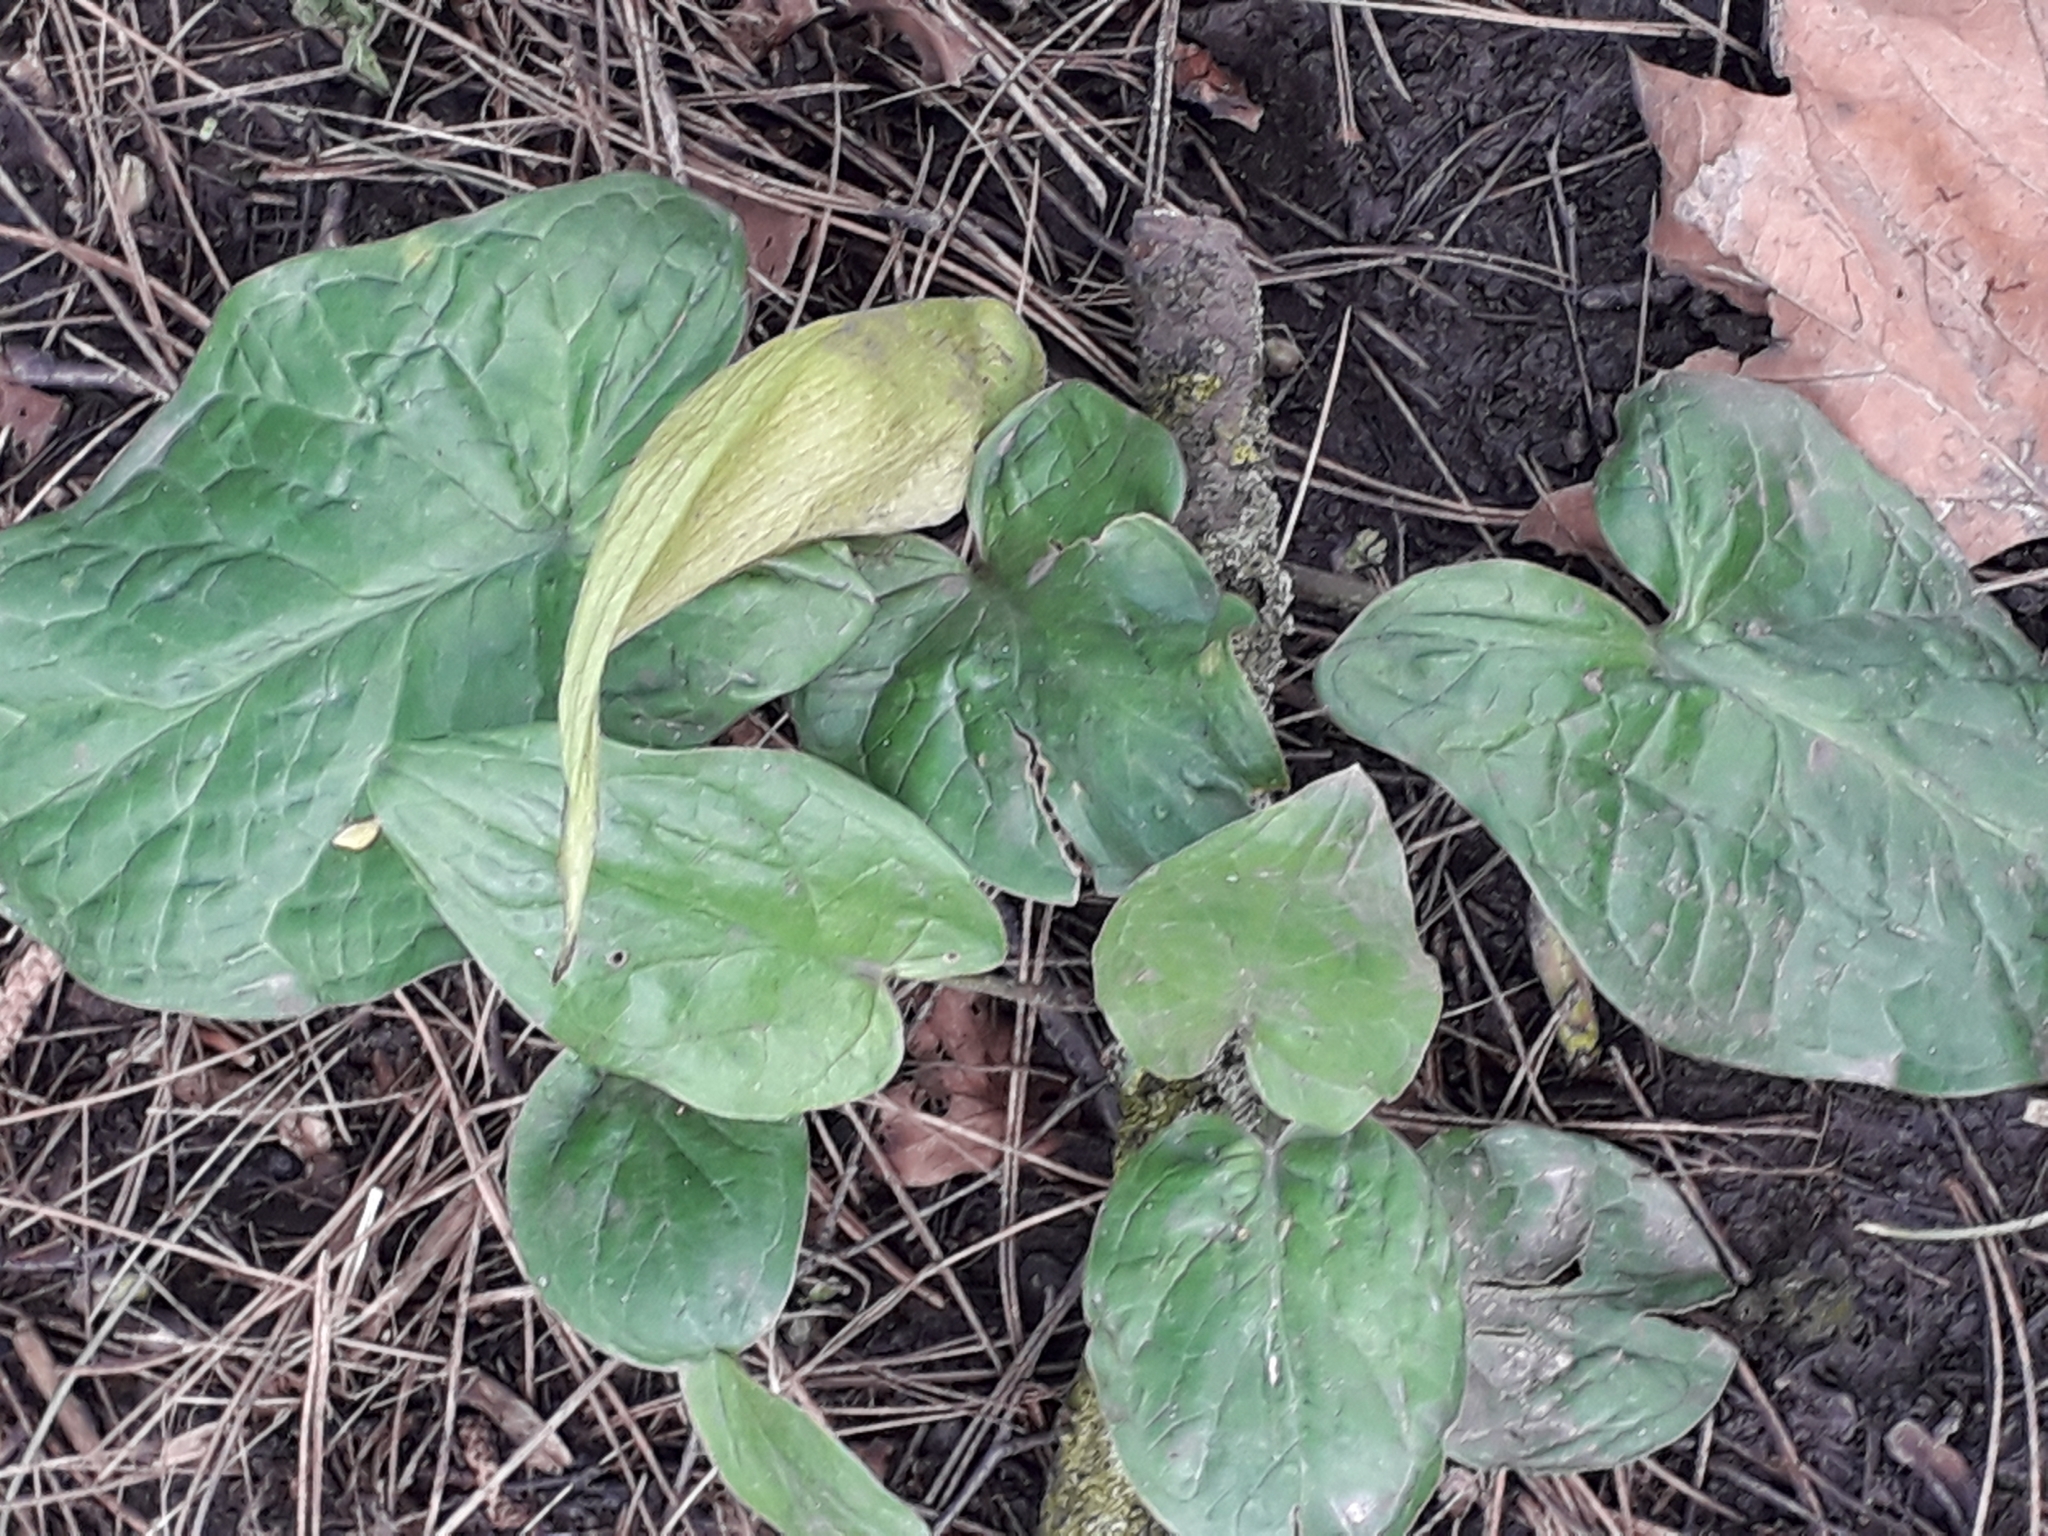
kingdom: Plantae
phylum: Tracheophyta
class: Liliopsida
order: Alismatales
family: Araceae
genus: Arum
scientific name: Arum maculatum
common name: Lords-and-ladies
